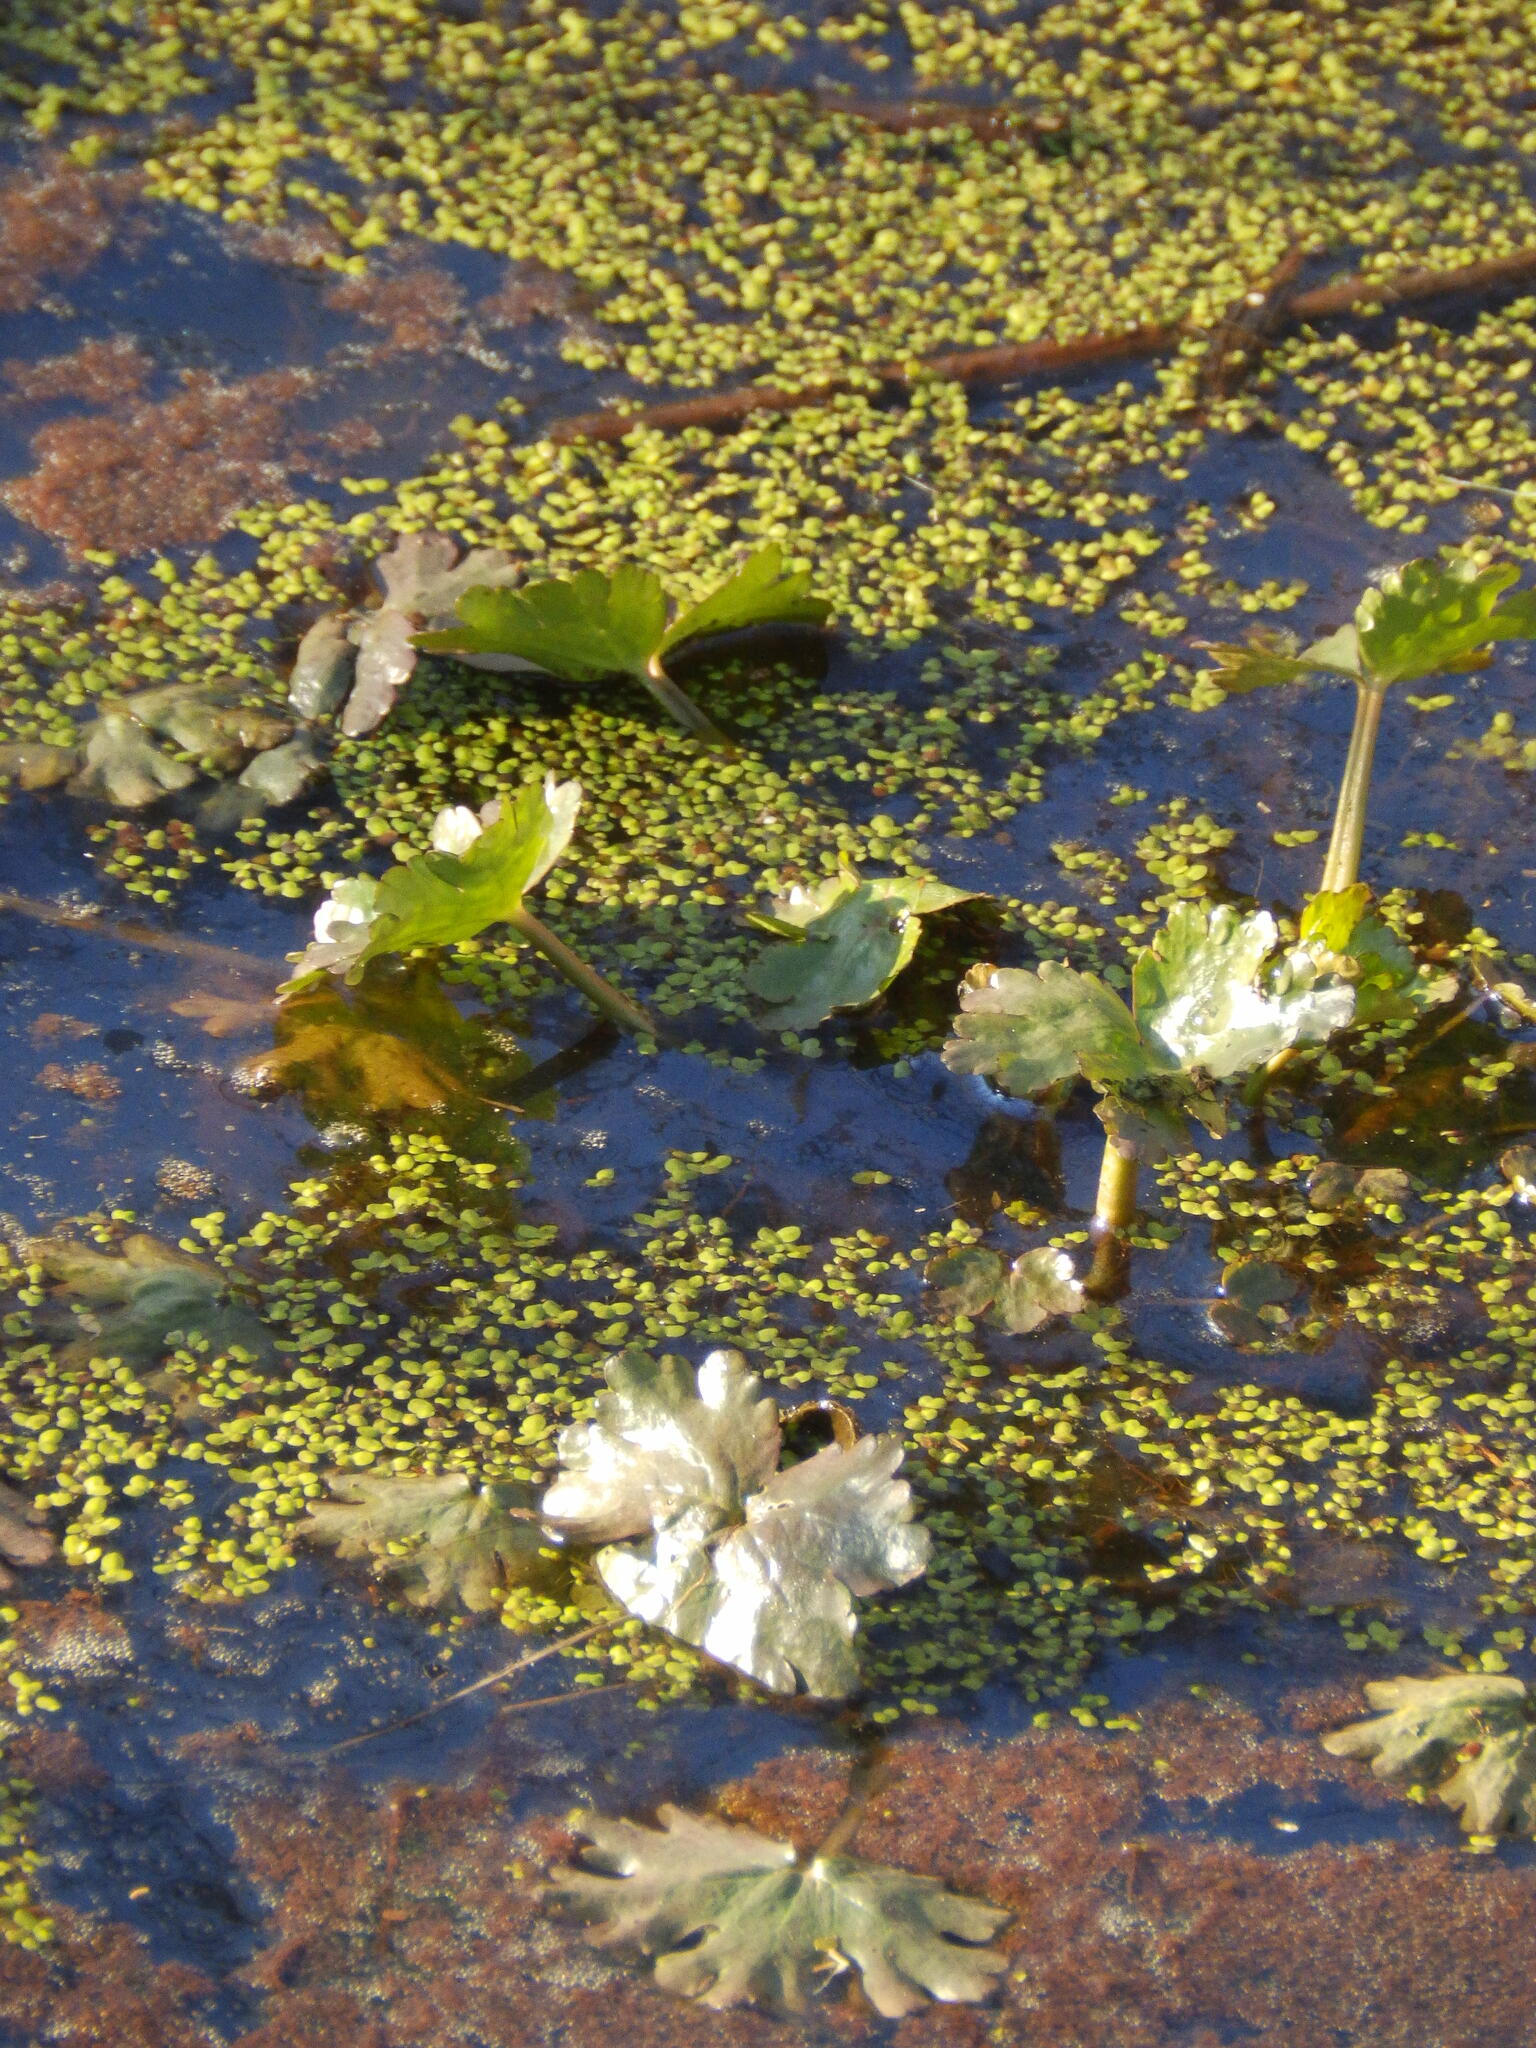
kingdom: Plantae
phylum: Tracheophyta
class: Magnoliopsida
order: Ranunculales
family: Ranunculaceae
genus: Ranunculus
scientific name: Ranunculus sceleratus
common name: Celery-leaved buttercup
